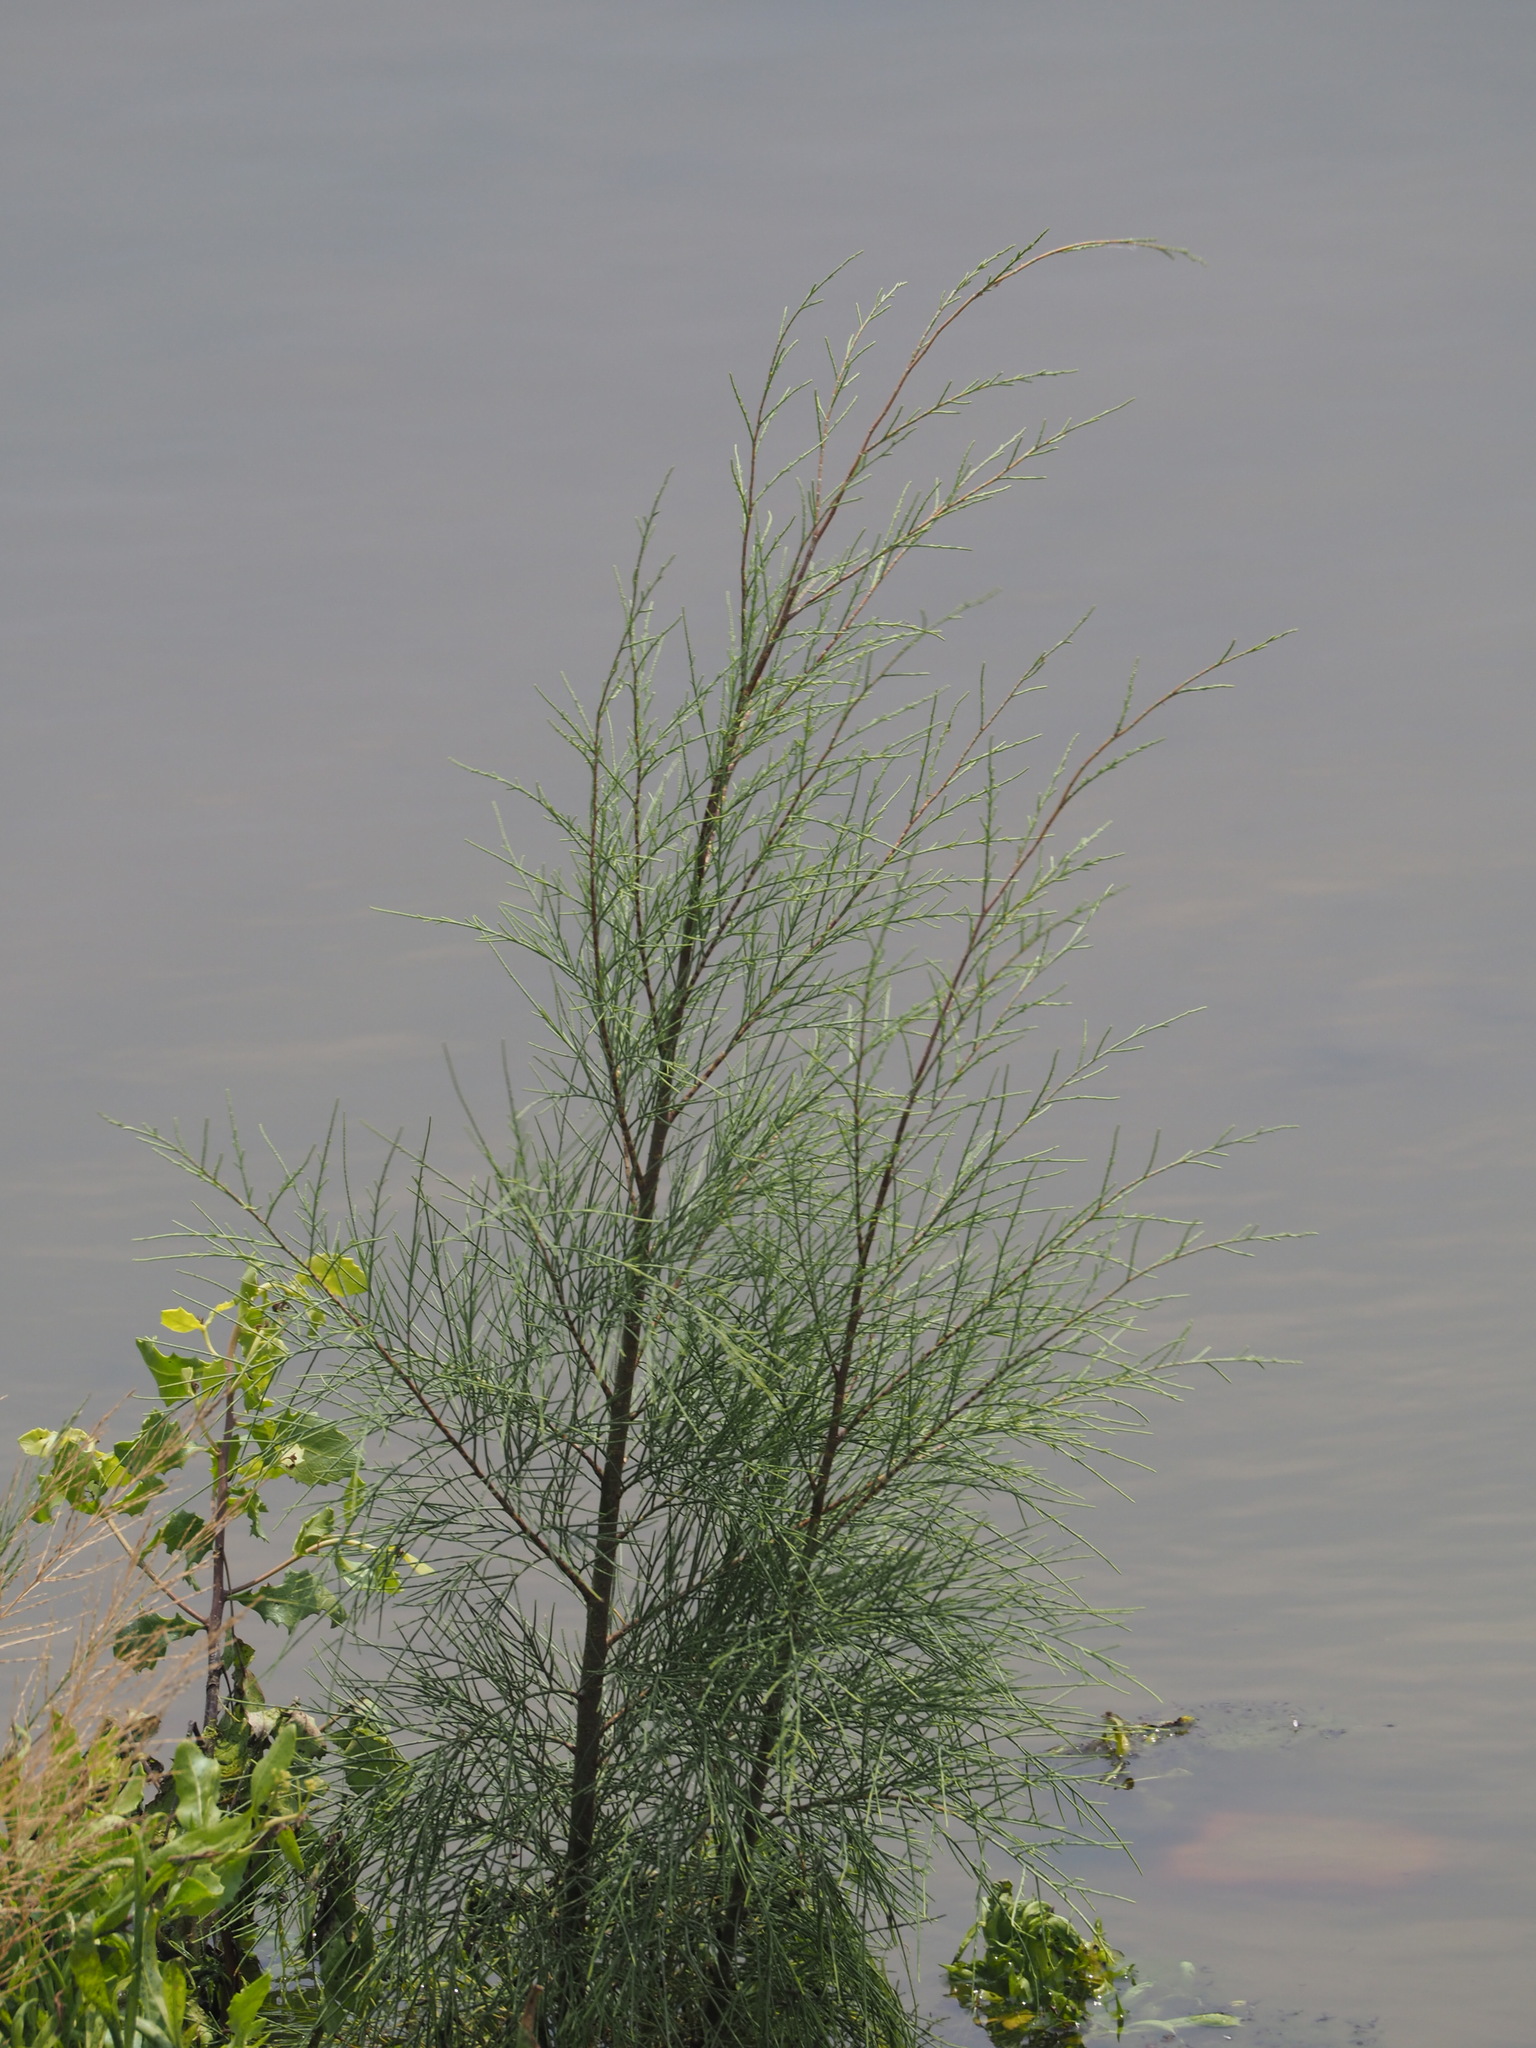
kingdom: Plantae
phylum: Tracheophyta
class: Magnoliopsida
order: Caryophyllales
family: Tamaricaceae
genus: Tamarix
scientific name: Tamarix aphylla
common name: Athel tamarisk
